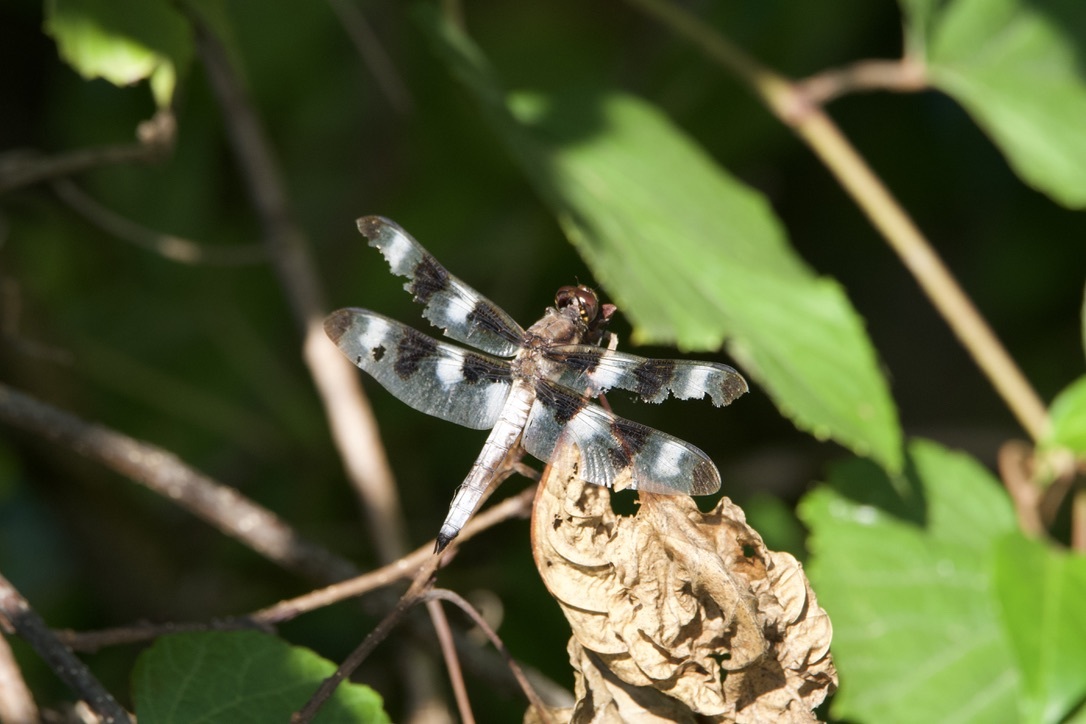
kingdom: Animalia
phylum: Arthropoda
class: Insecta
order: Odonata
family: Libellulidae
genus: Libellula
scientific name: Libellula pulchella
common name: Twelve-spotted skimmer
